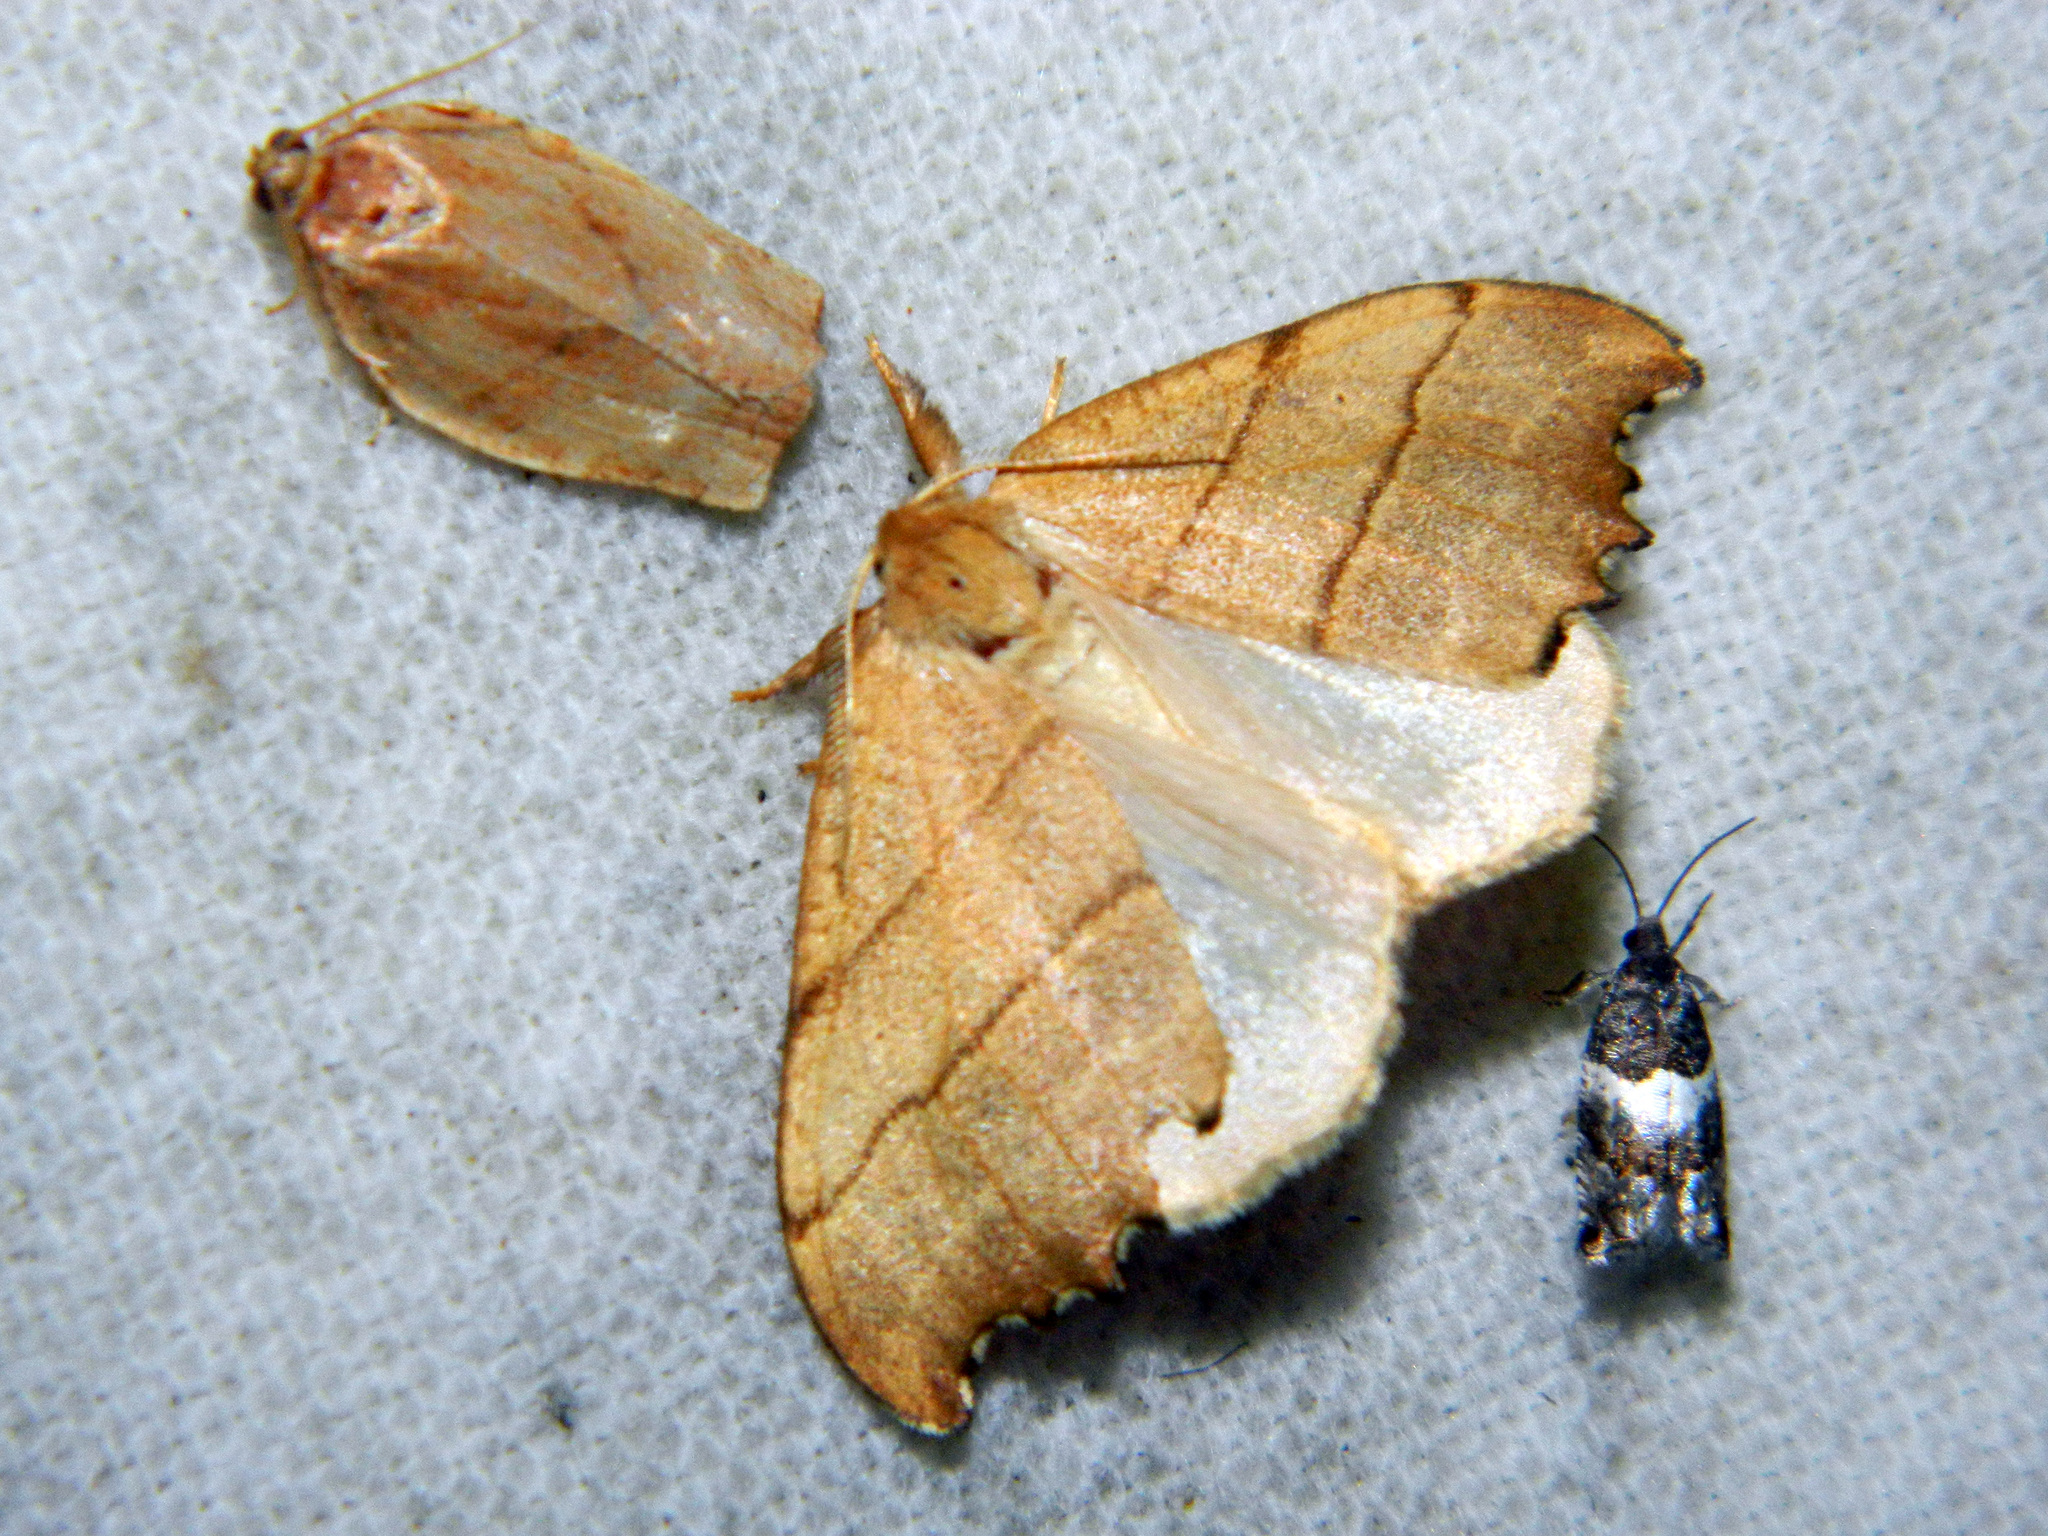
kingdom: Animalia
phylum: Arthropoda
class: Insecta
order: Lepidoptera
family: Drepanidae
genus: Falcaria
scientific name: Falcaria bilineata
